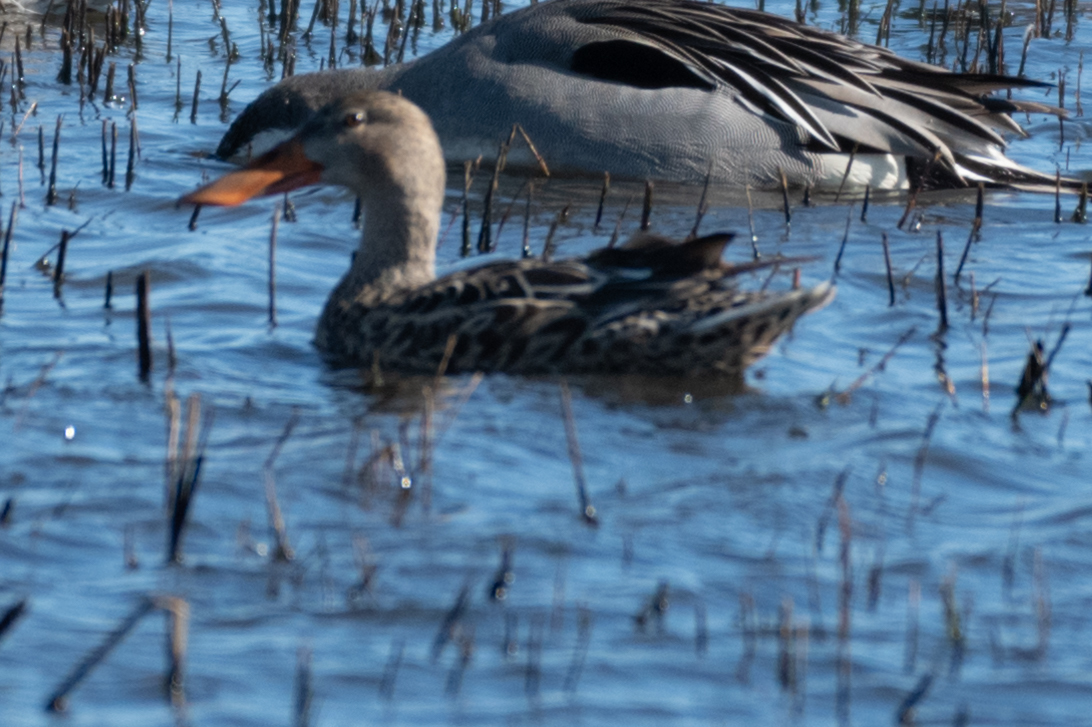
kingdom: Animalia
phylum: Chordata
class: Aves
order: Anseriformes
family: Anatidae
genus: Anas
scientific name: Anas acuta
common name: Northern pintail
